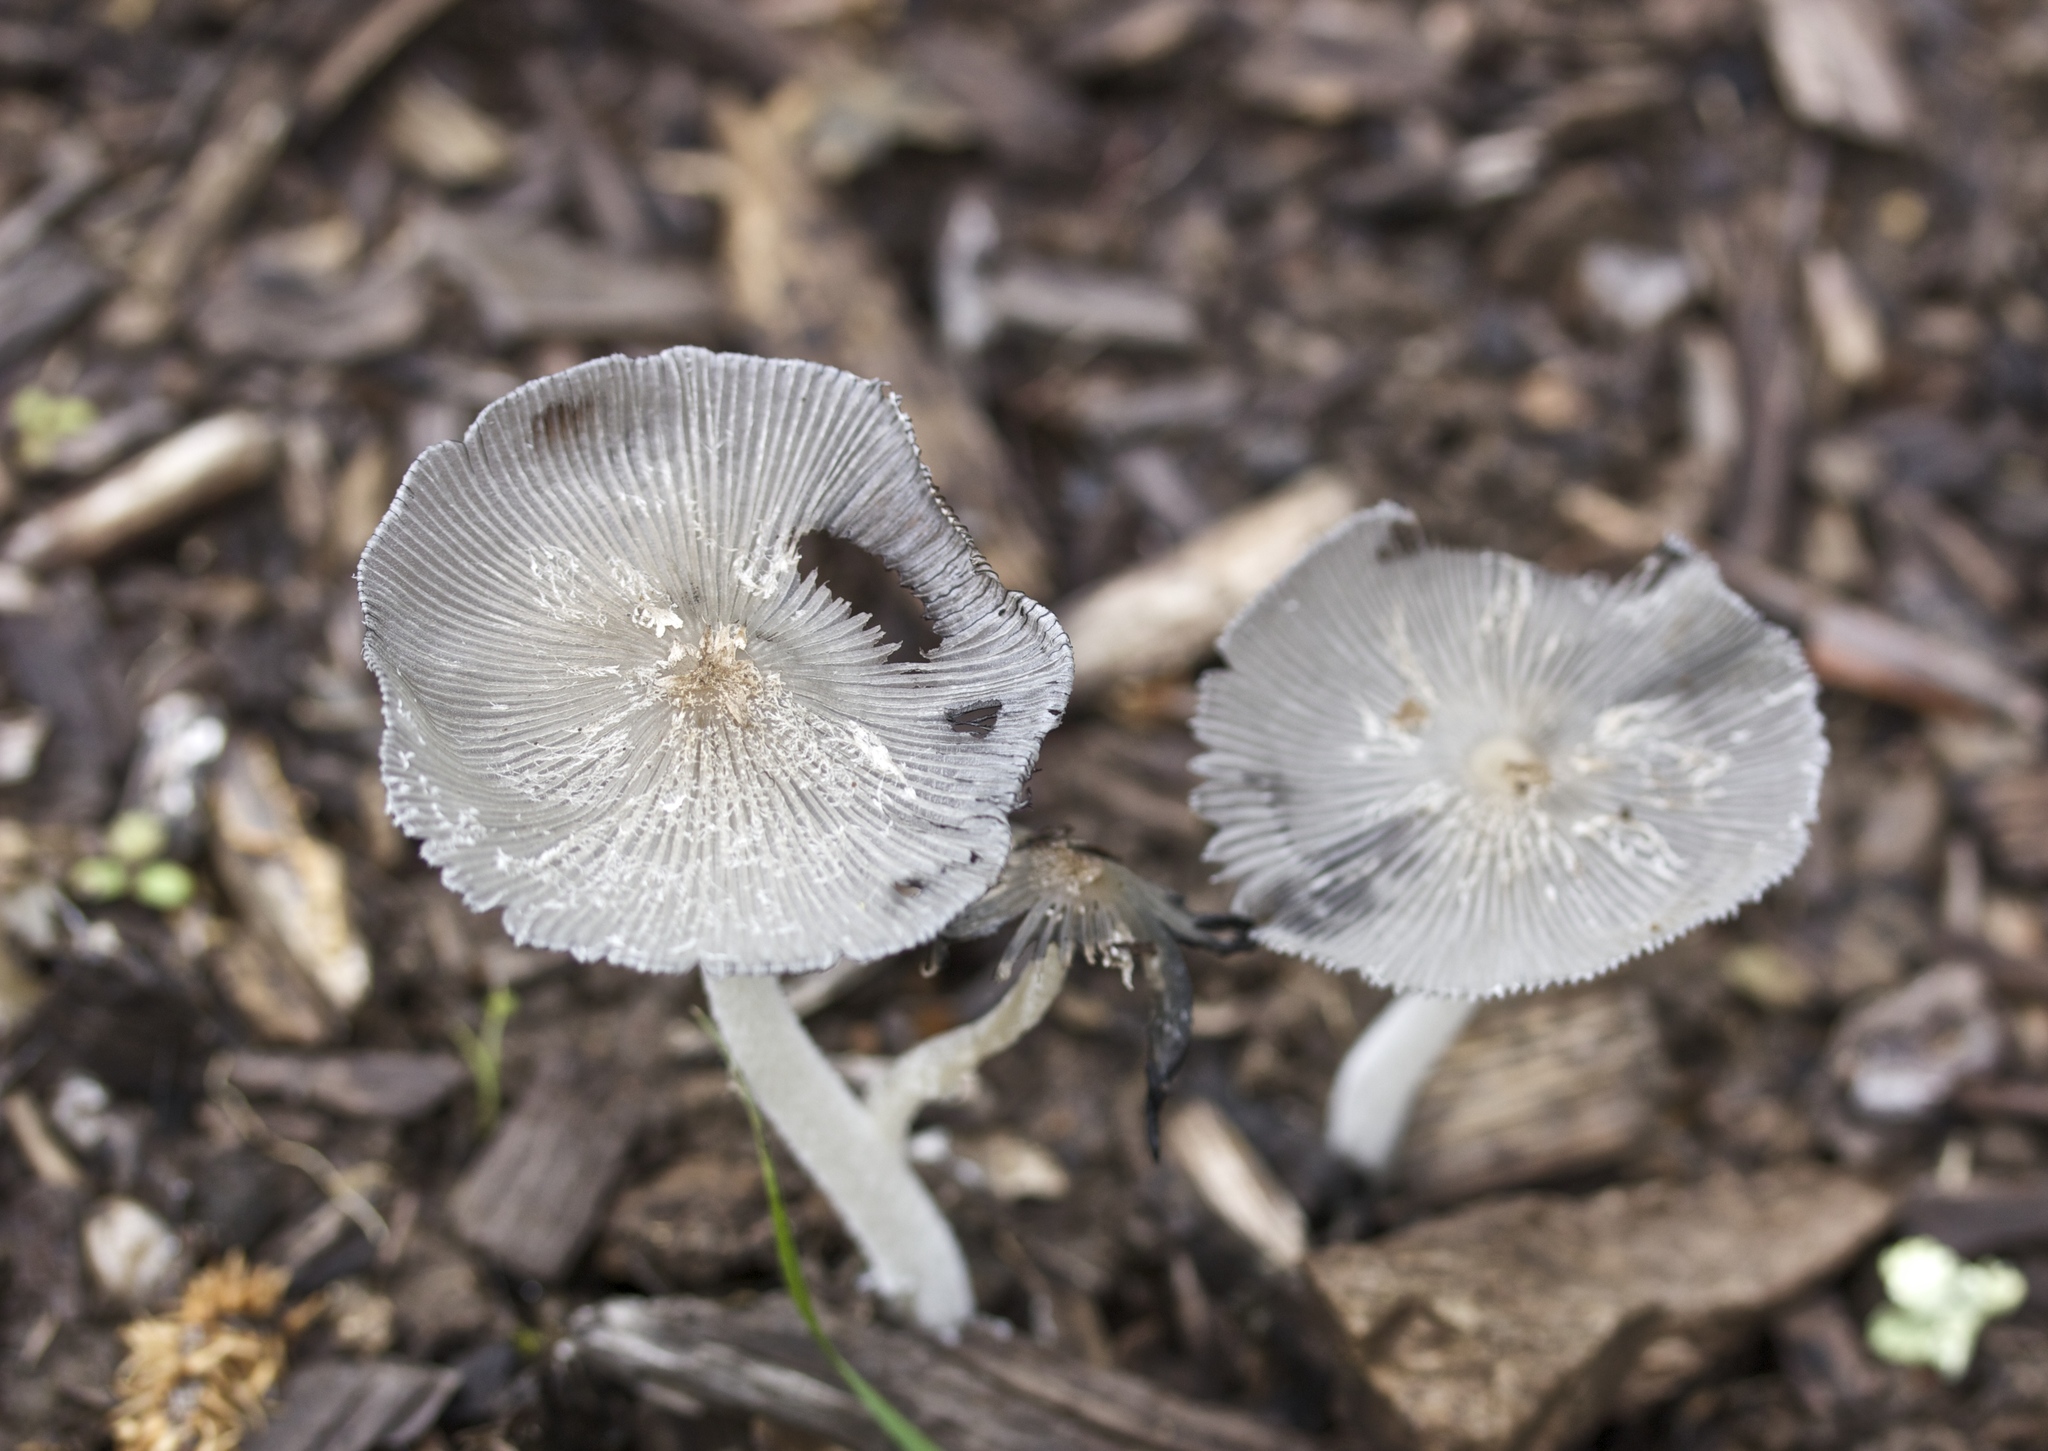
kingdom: Fungi
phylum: Basidiomycota
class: Agaricomycetes
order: Agaricales
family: Psathyrellaceae
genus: Coprinopsis
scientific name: Coprinopsis lagopus
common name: Hare'sfoot inkcap
